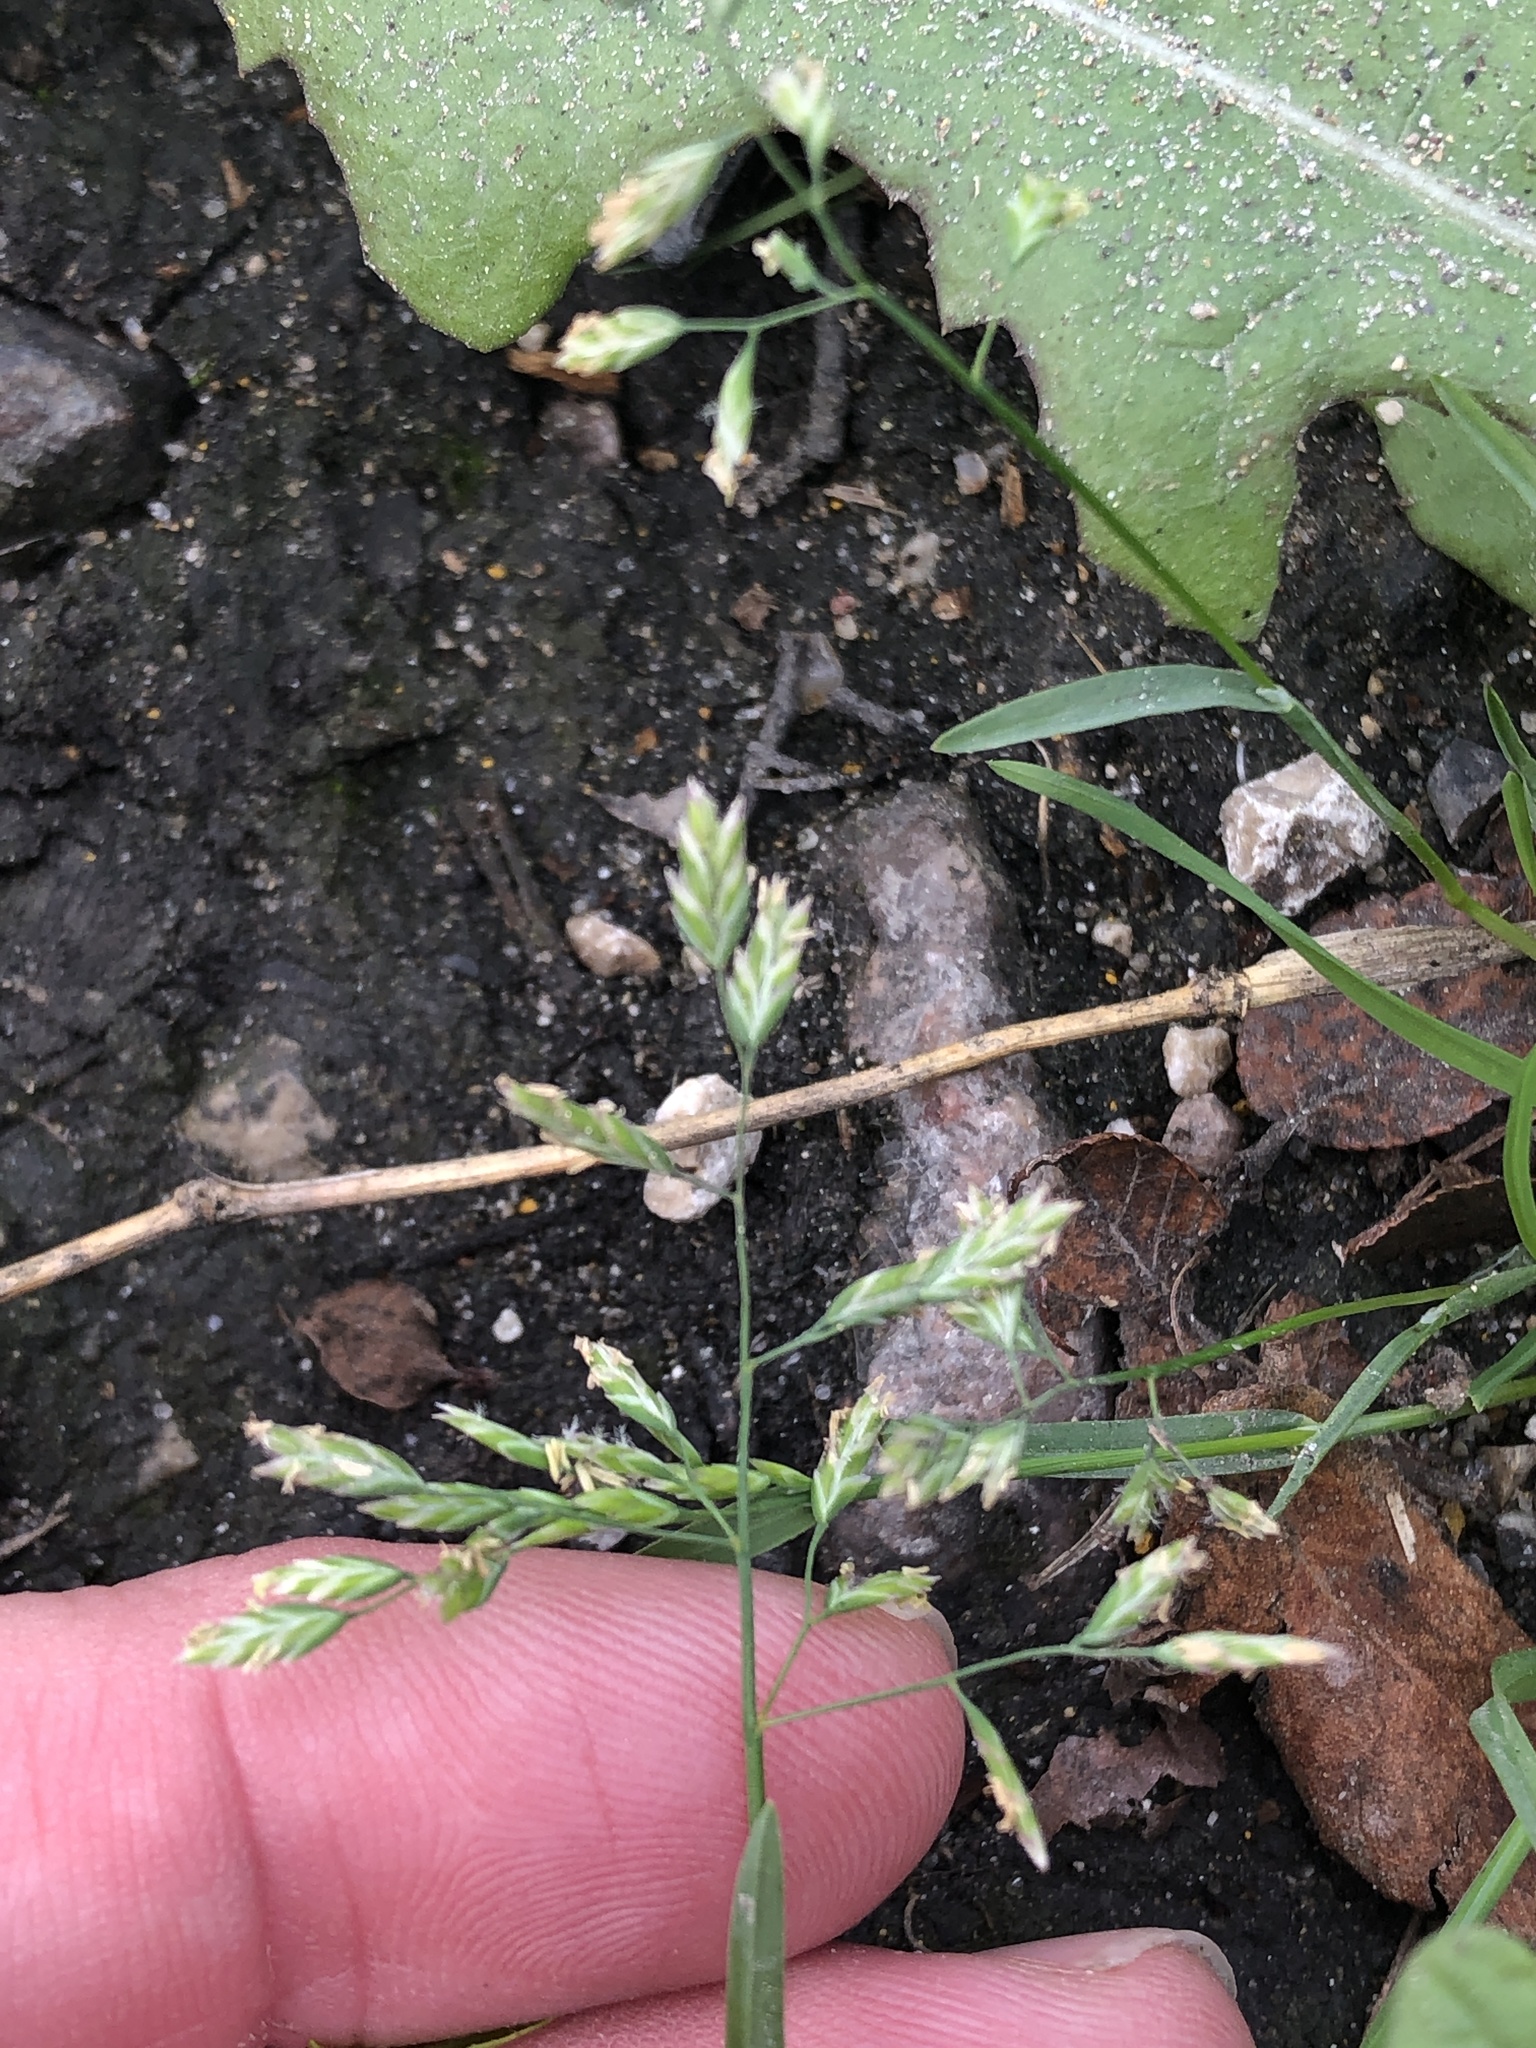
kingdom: Plantae
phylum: Tracheophyta
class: Liliopsida
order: Poales
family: Poaceae
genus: Poa
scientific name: Poa annua
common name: Annual bluegrass
